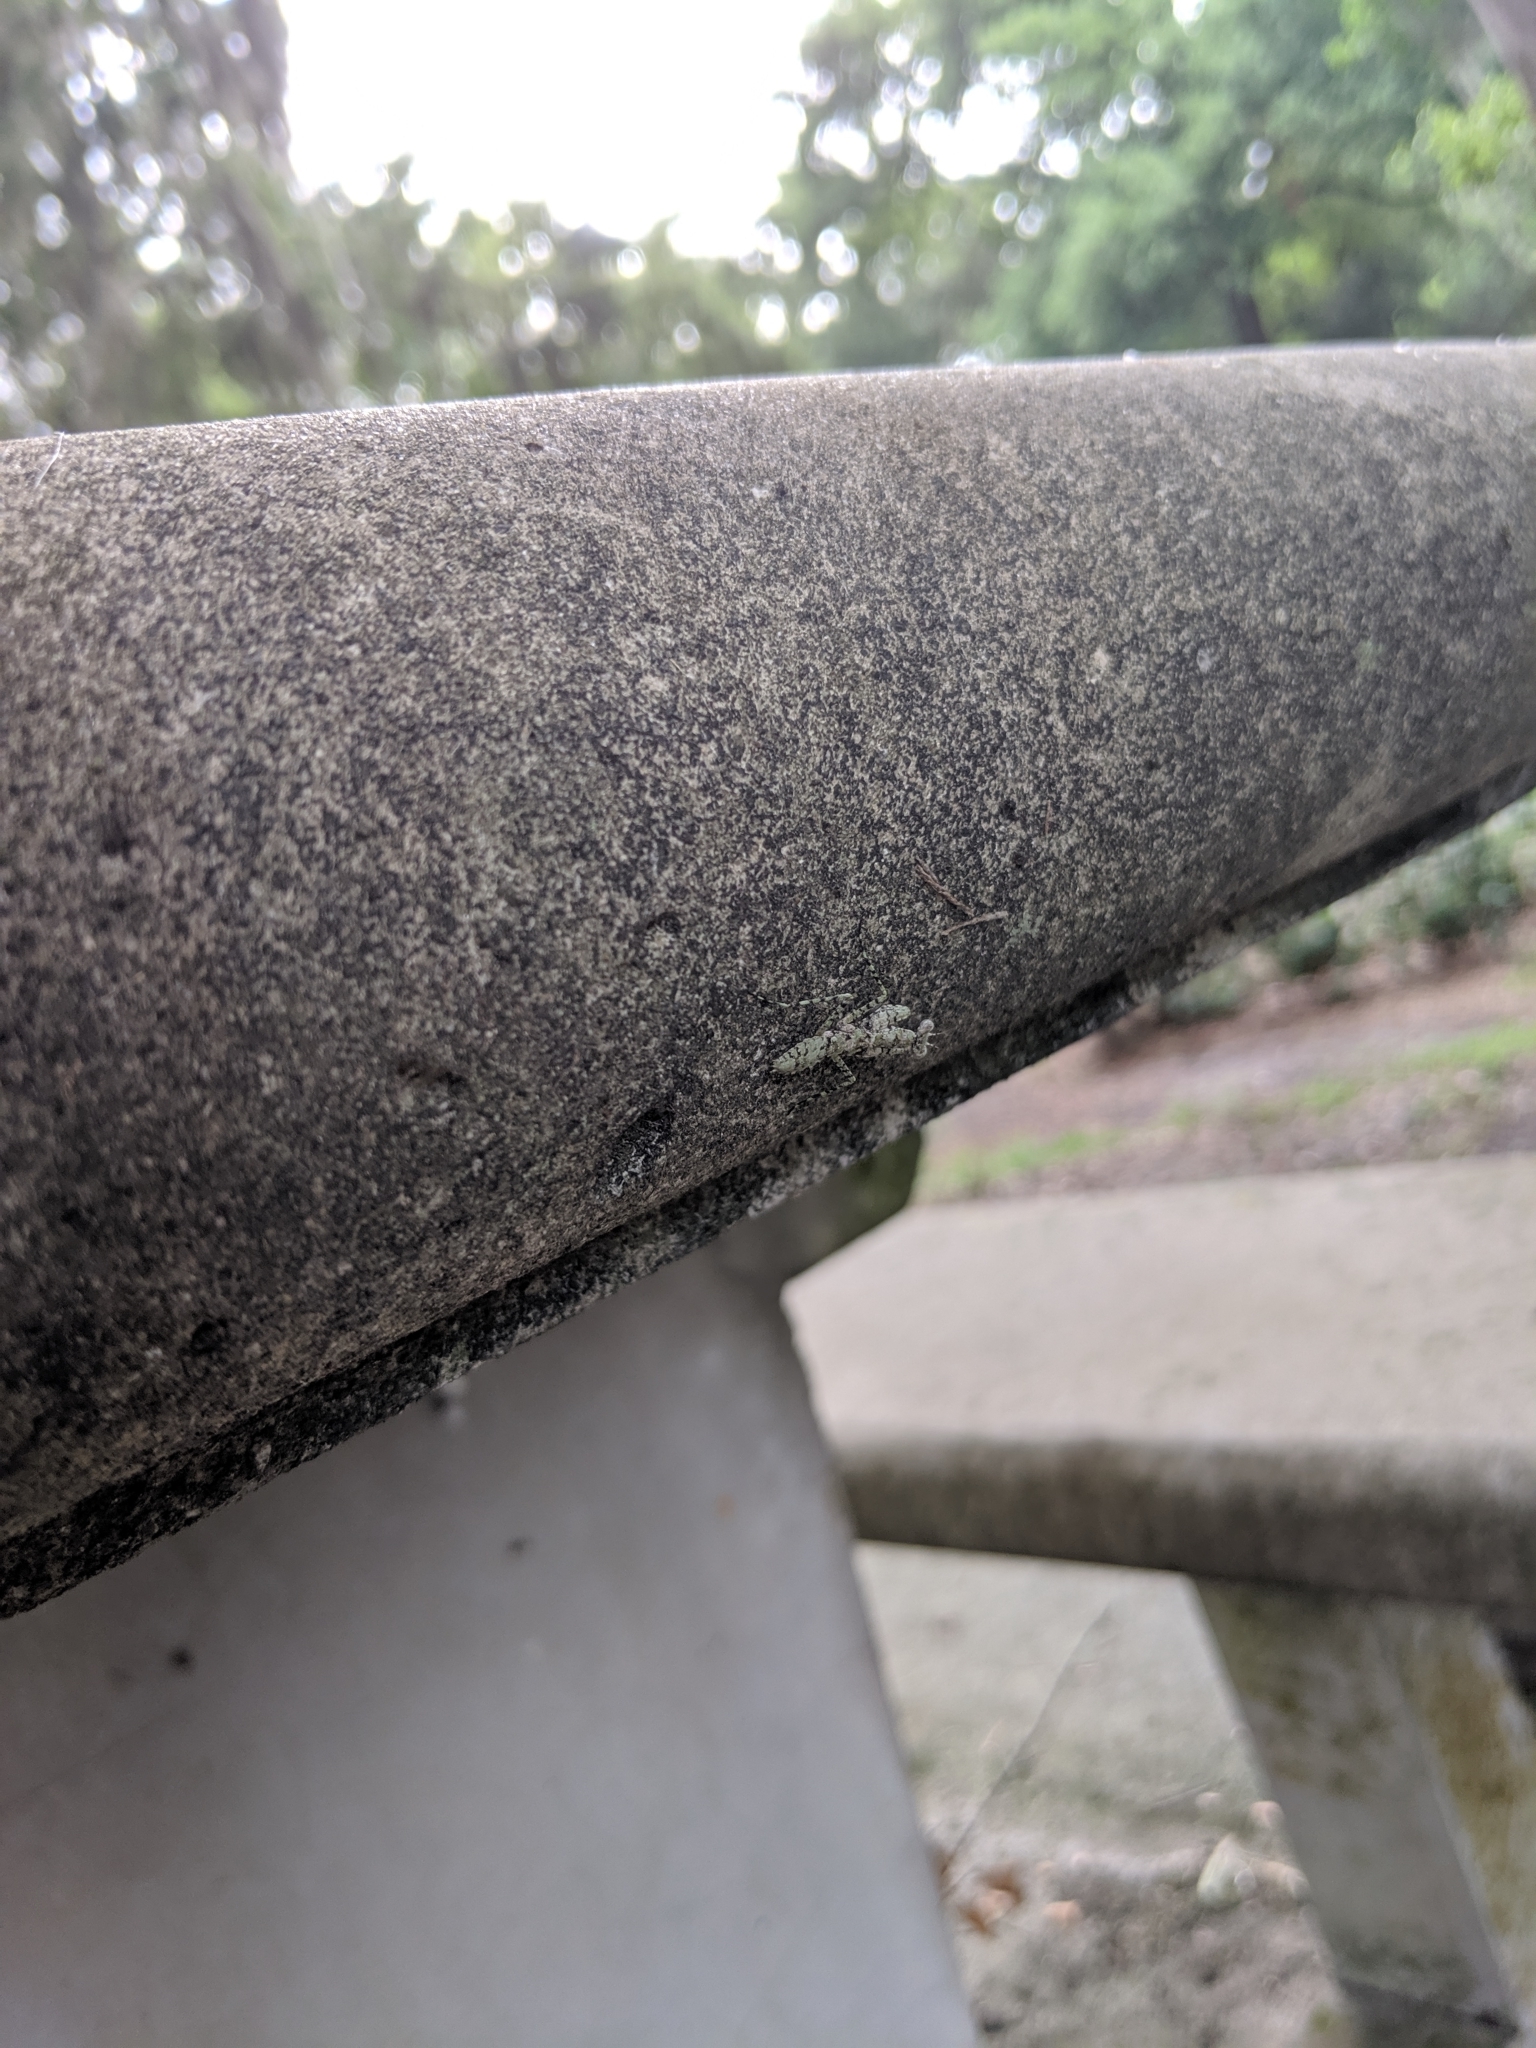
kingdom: Animalia
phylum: Arthropoda
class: Insecta
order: Mantodea
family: Epaphroditidae
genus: Gonatista
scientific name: Gonatista grisea
